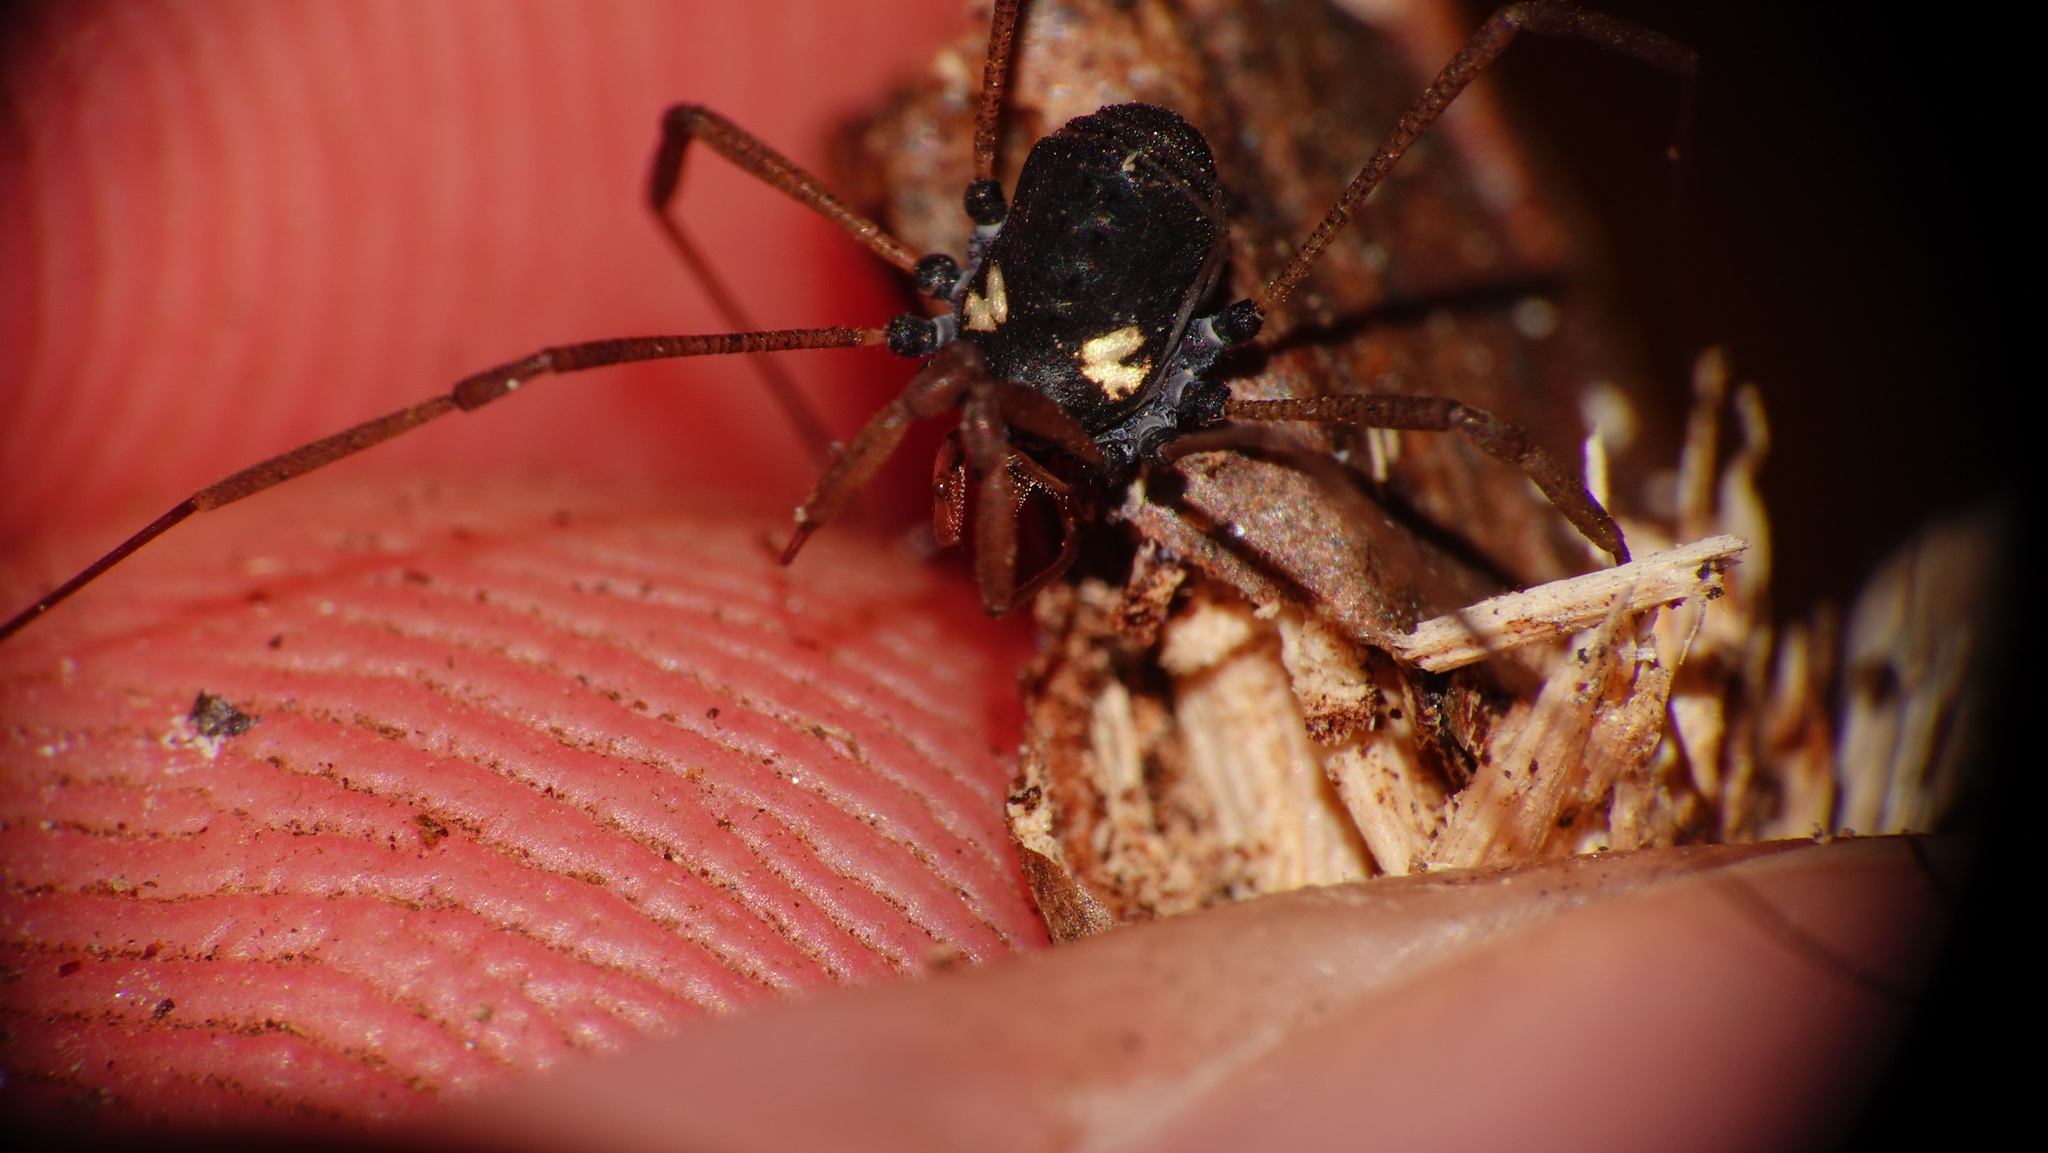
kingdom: Animalia
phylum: Arthropoda
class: Arachnida
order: Opiliones
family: Nemastomatidae
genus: Histricostoma
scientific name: Histricostoma argenteolunulatum
